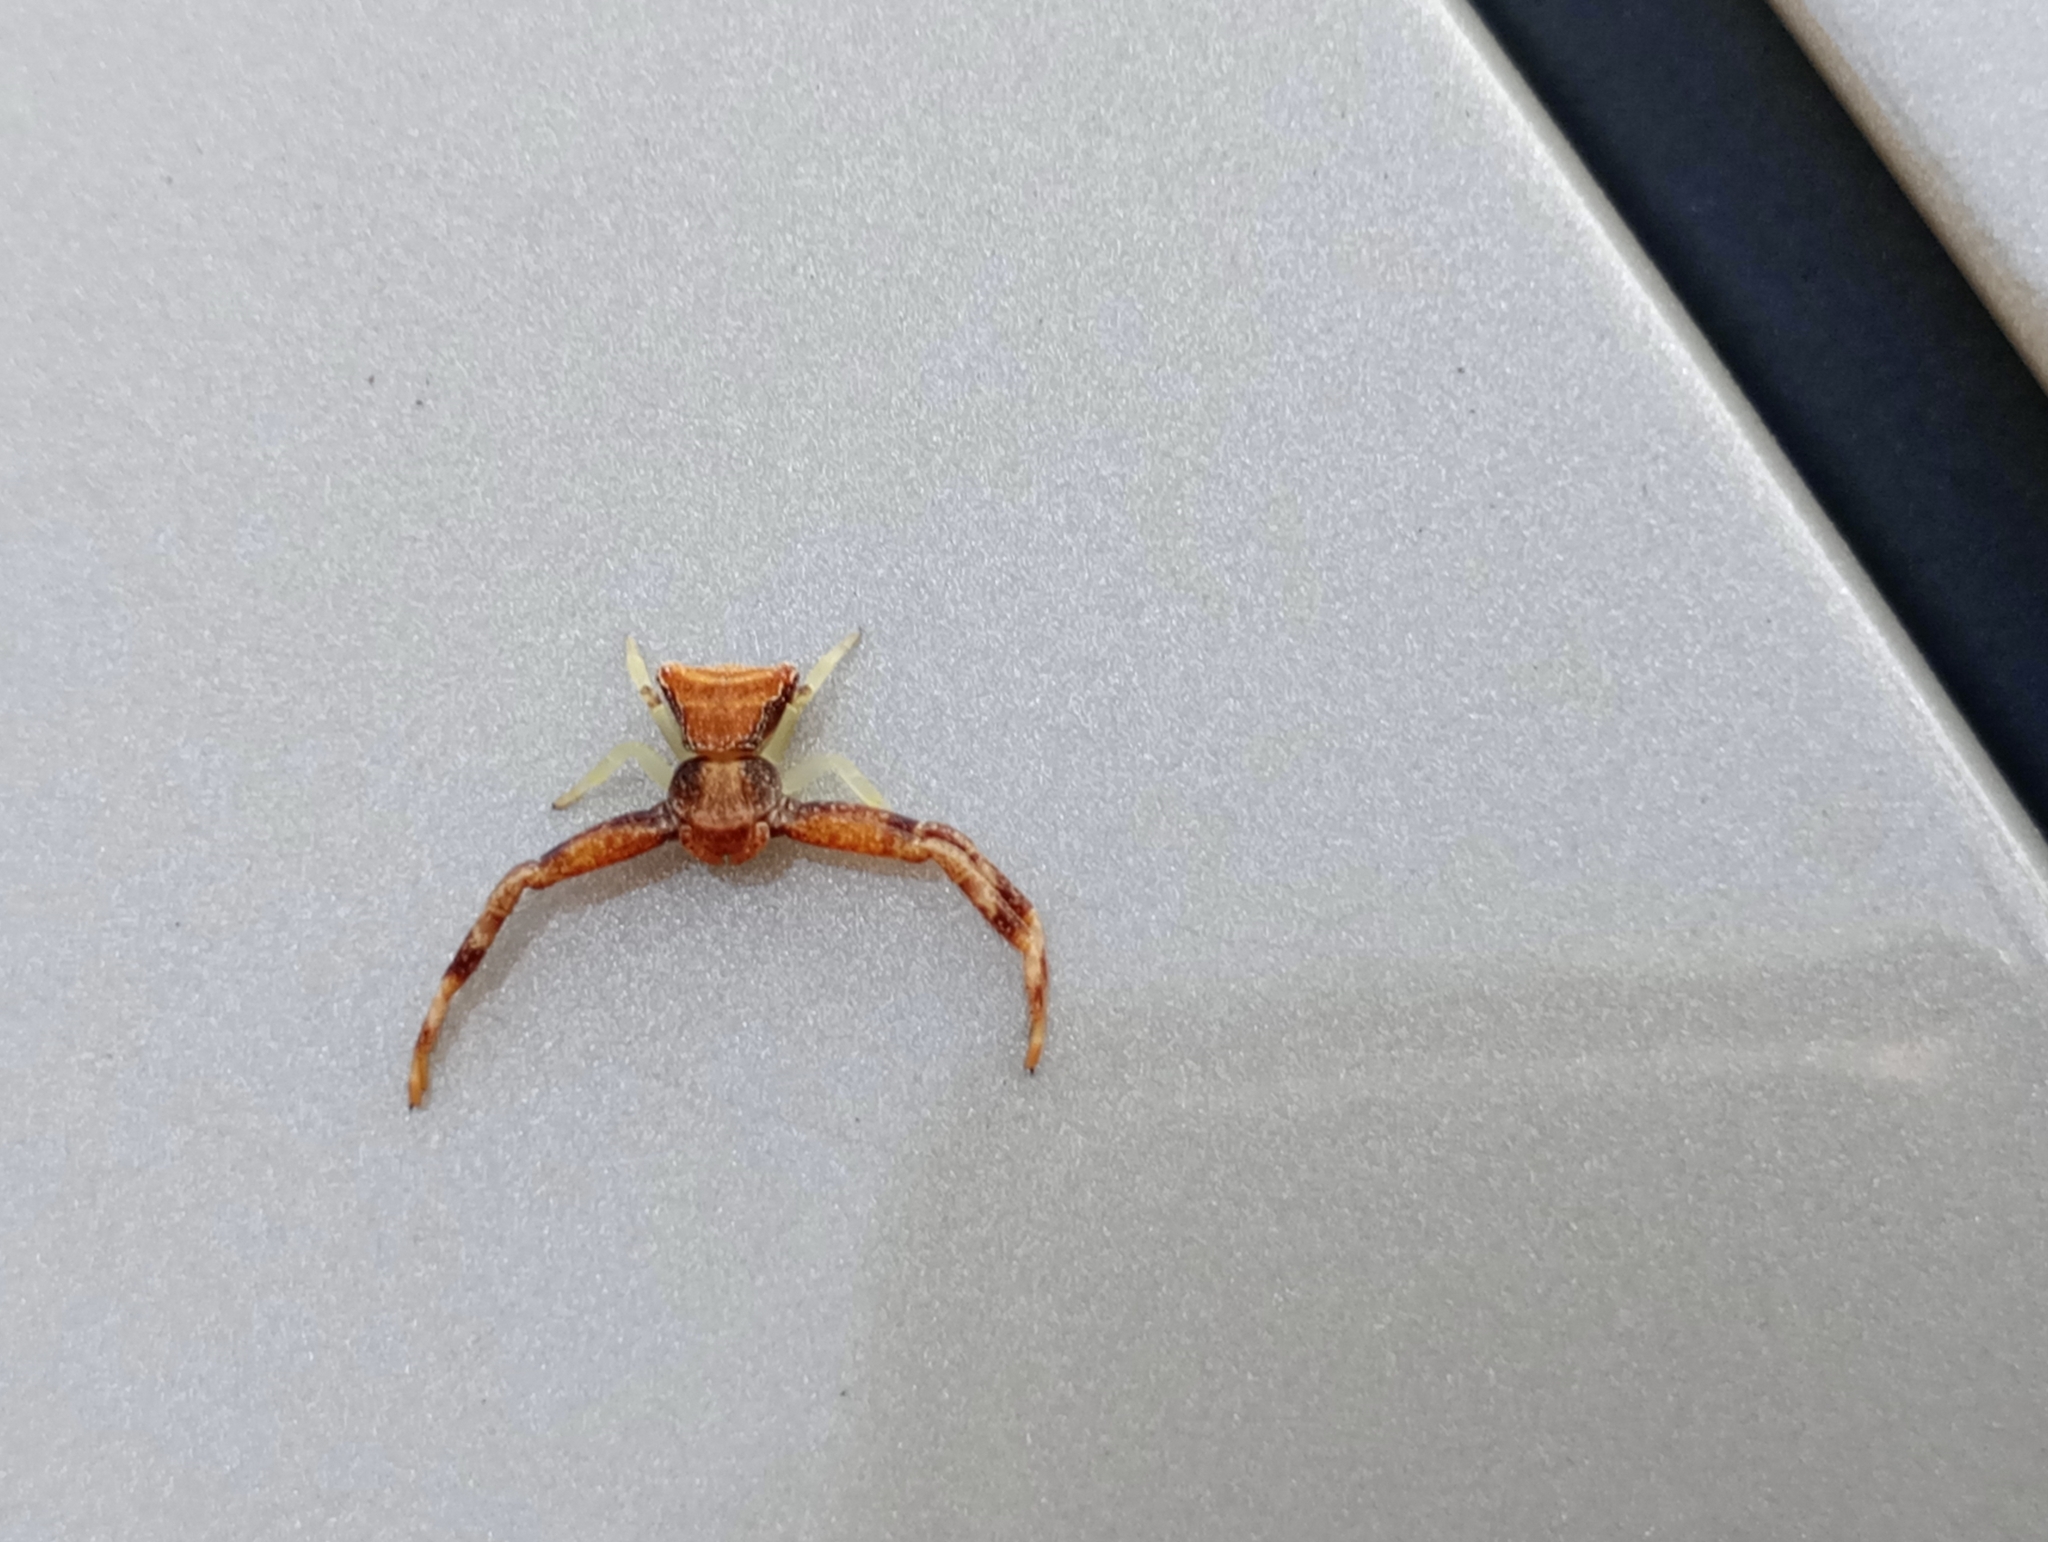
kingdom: Animalia
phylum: Arthropoda
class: Arachnida
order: Araneae
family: Thomisidae
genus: Pistius
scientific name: Pistius truncatus
